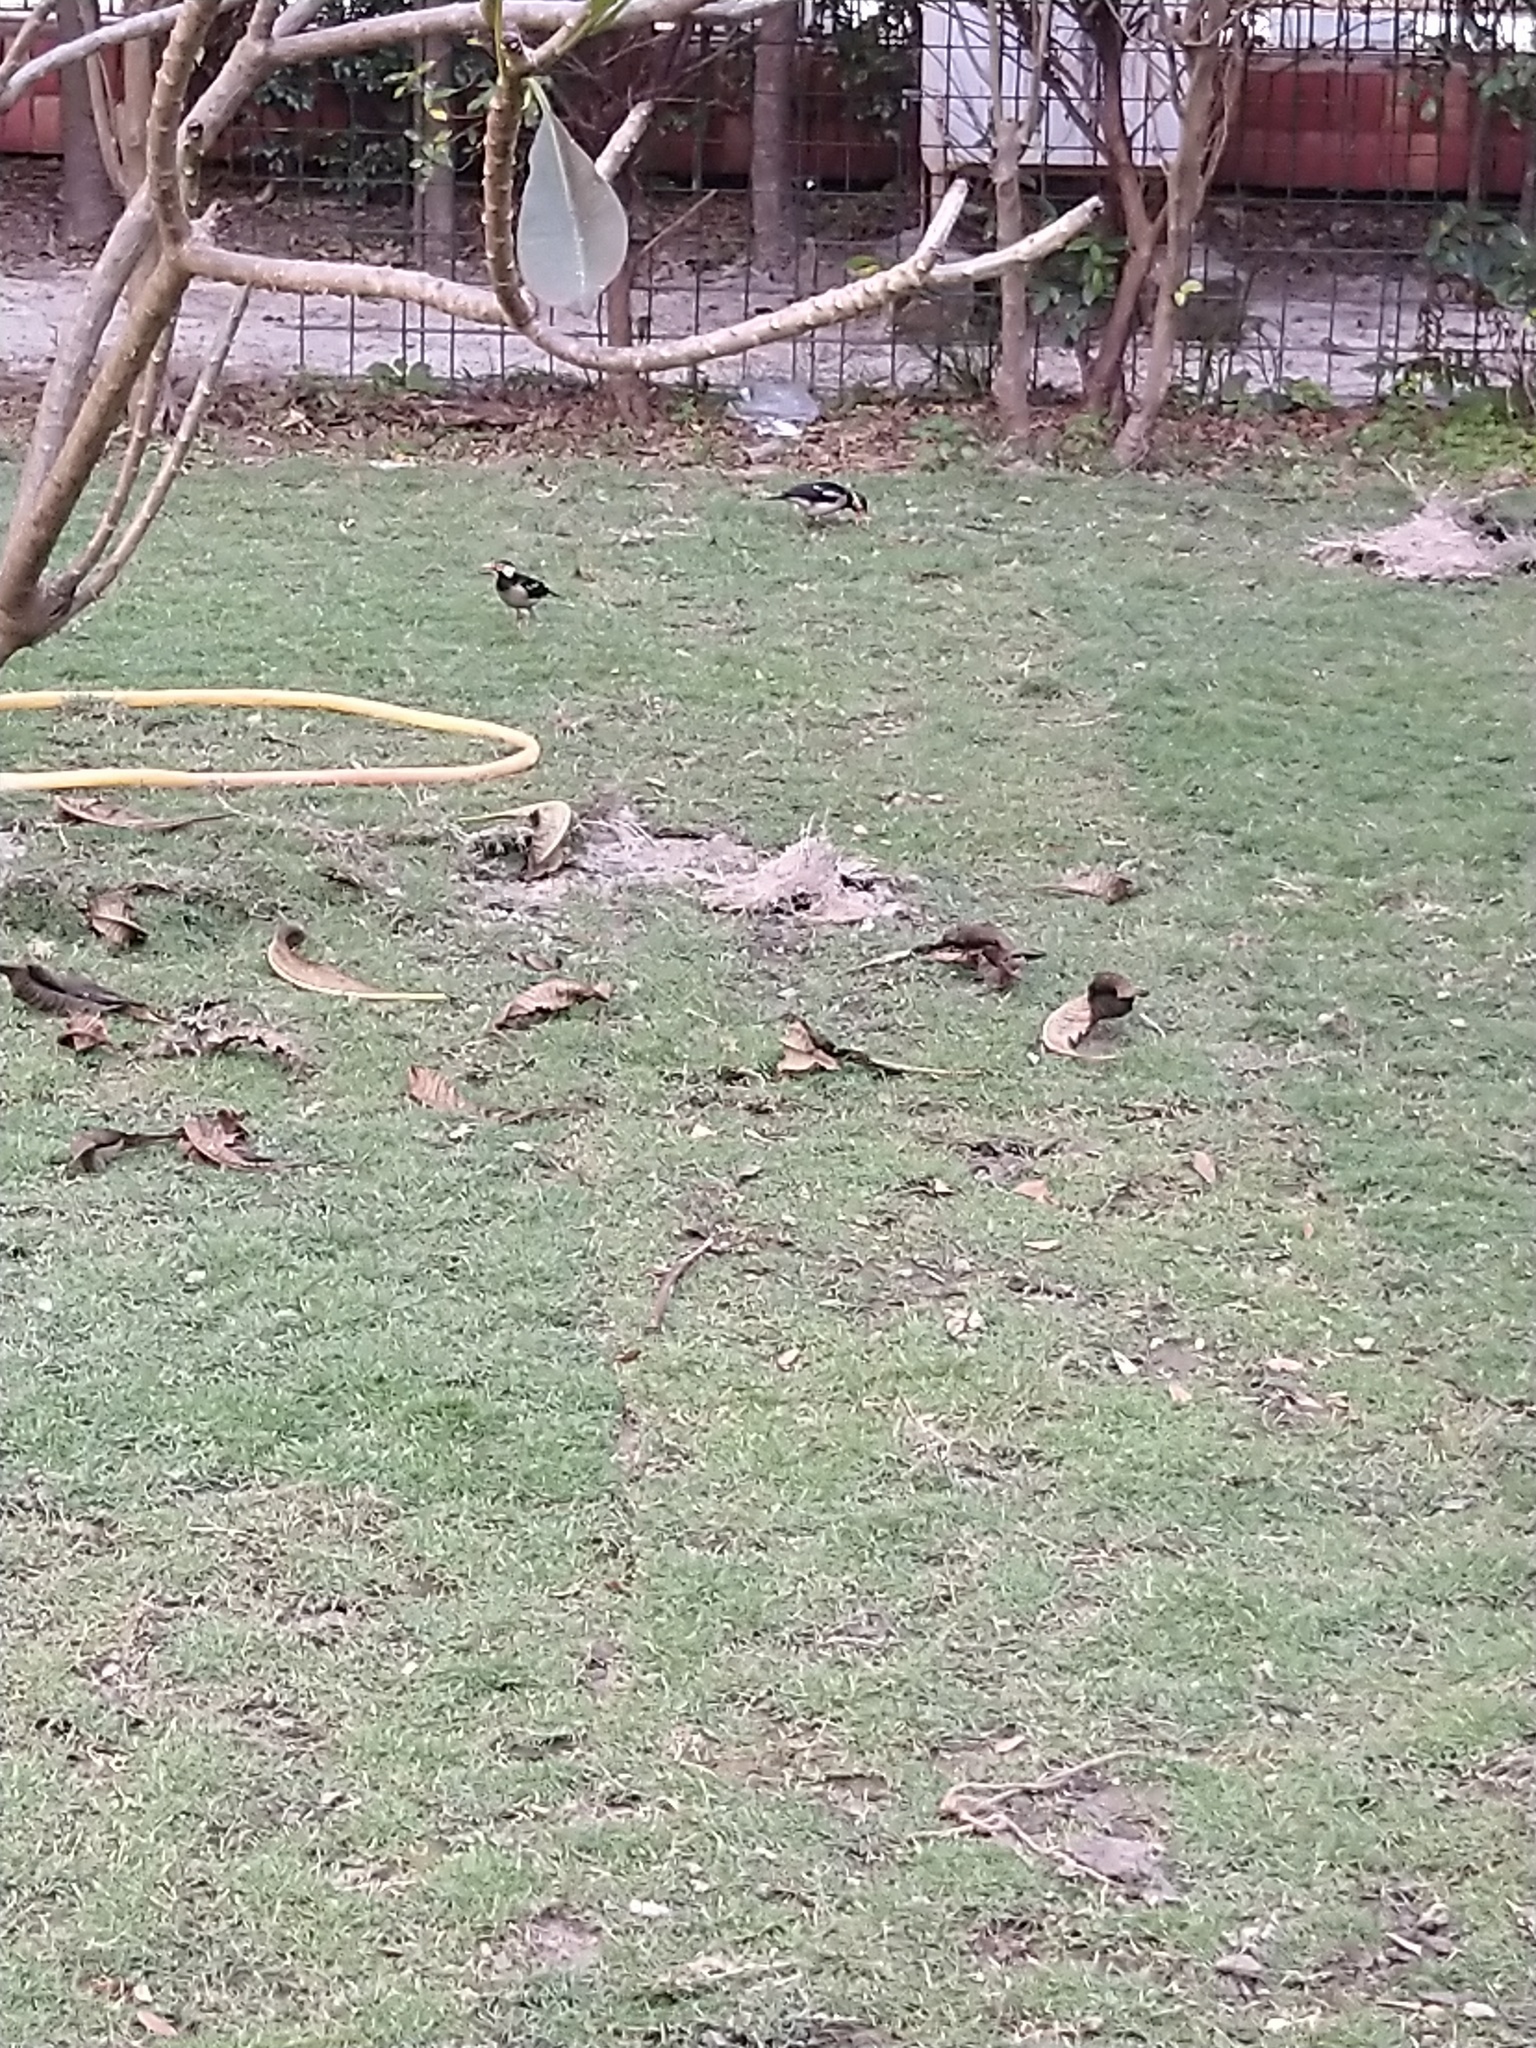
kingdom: Animalia
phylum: Chordata
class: Aves
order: Passeriformes
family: Sturnidae
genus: Gracupica
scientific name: Gracupica contra
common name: Pied myna
